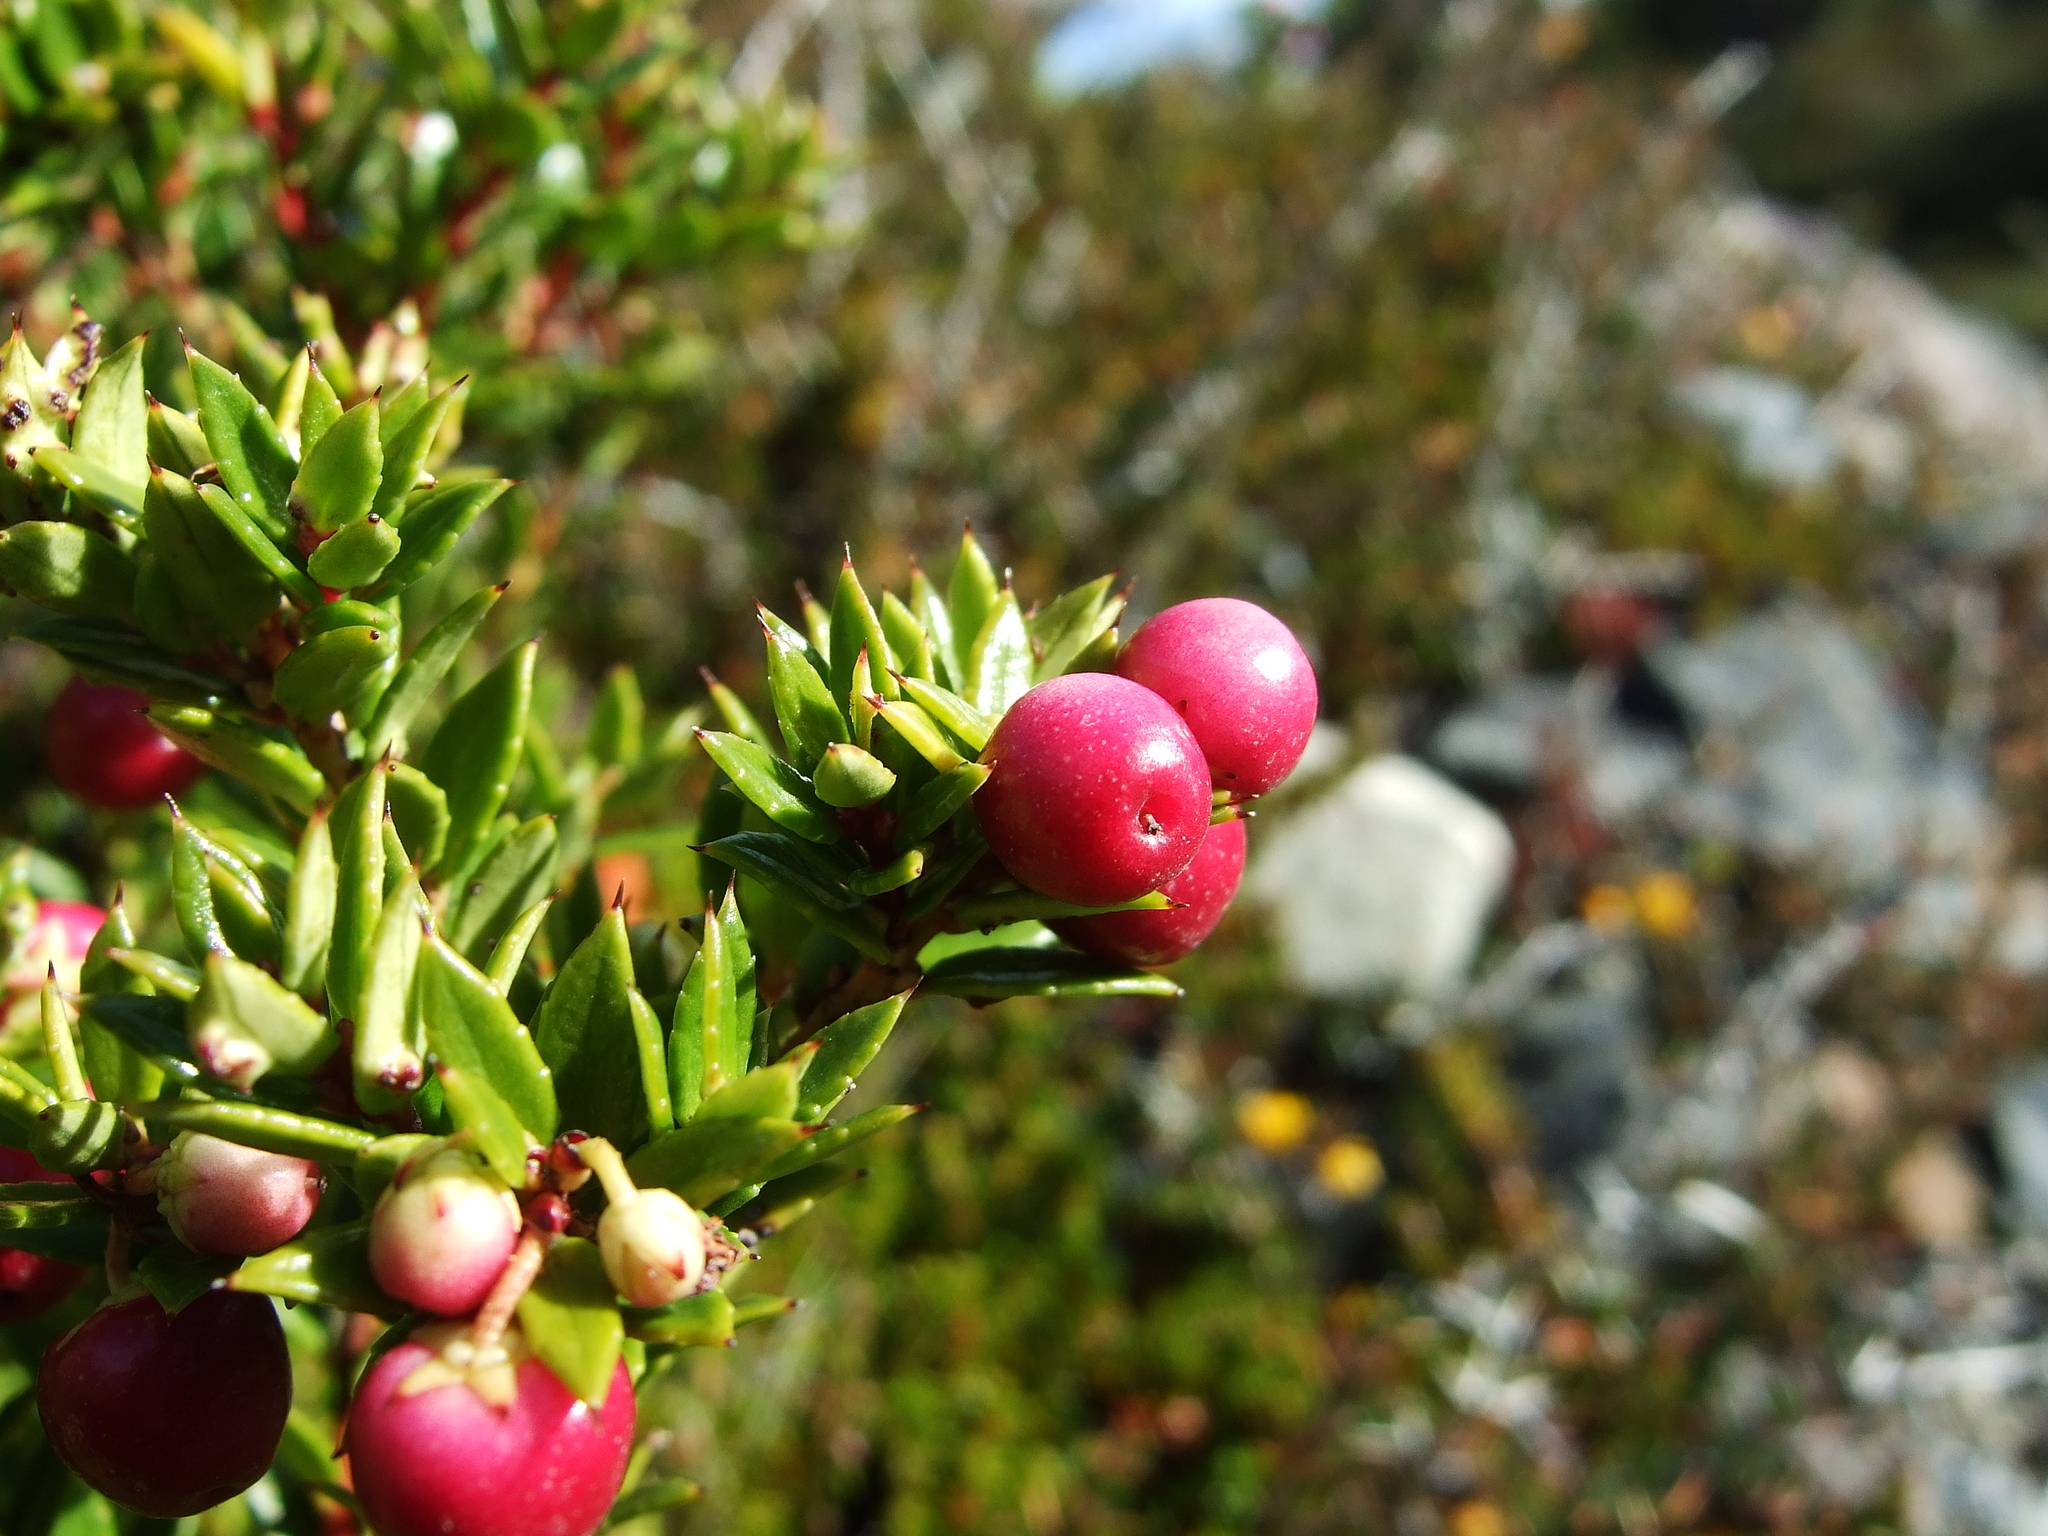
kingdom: Plantae
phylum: Tracheophyta
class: Magnoliopsida
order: Ericales
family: Ericaceae
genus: Gaultheria
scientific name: Gaultheria mucronata
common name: Prickly heath
